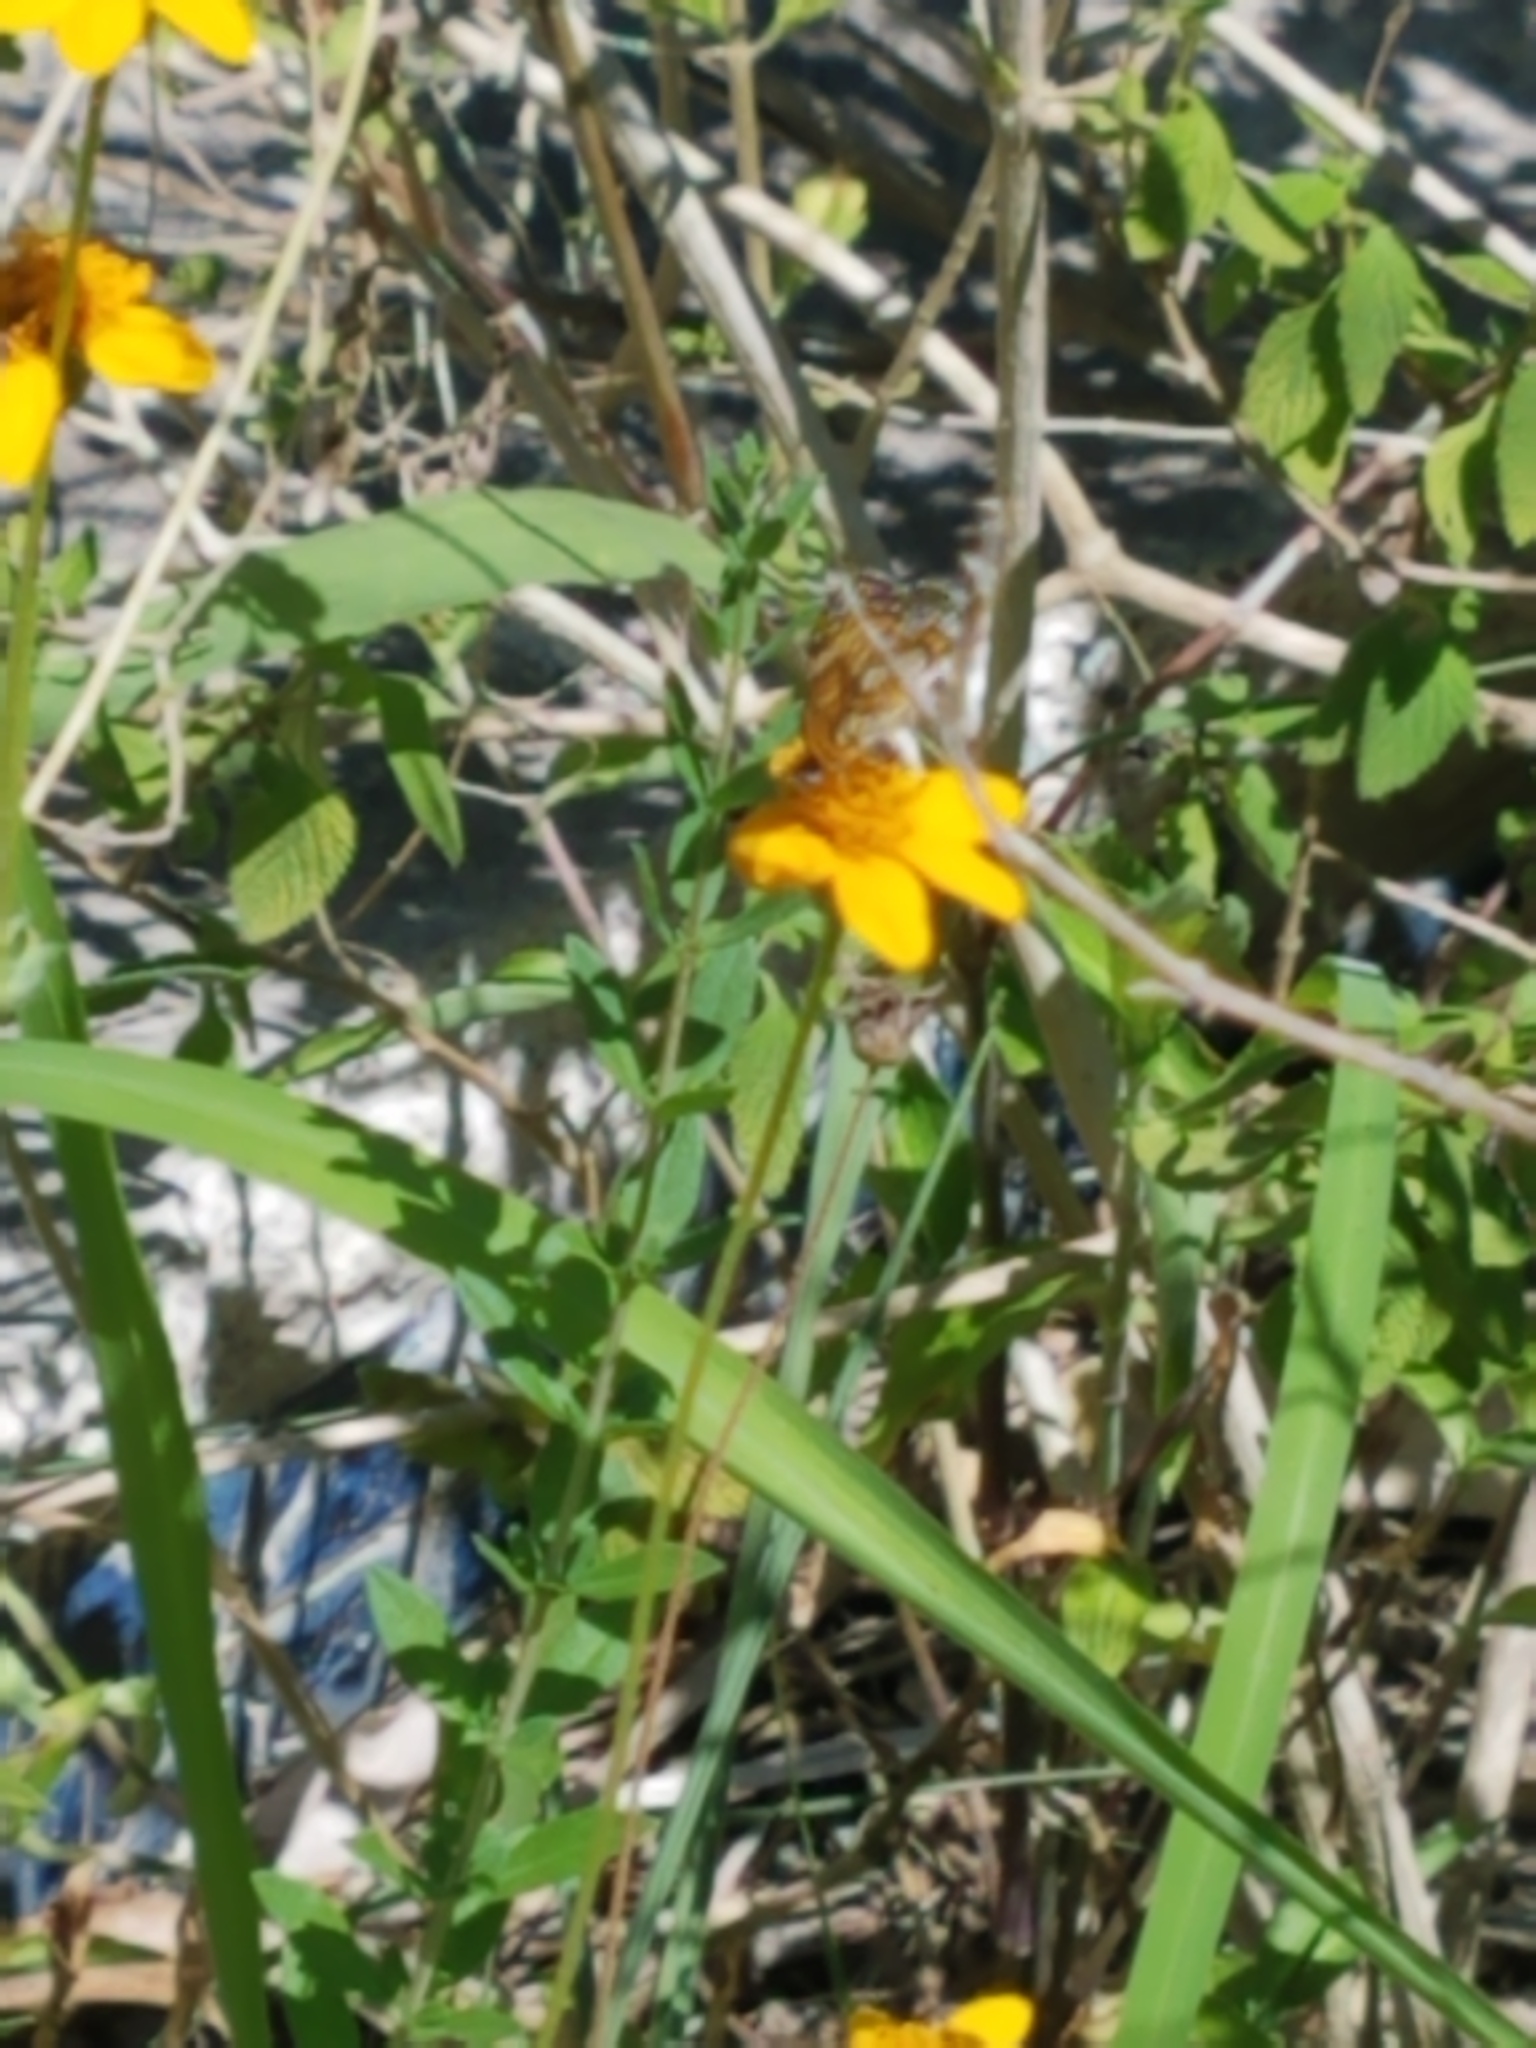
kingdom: Plantae
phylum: Tracheophyta
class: Magnoliopsida
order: Asterales
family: Asteraceae
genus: Wedelia
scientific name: Wedelia acapulcensis
